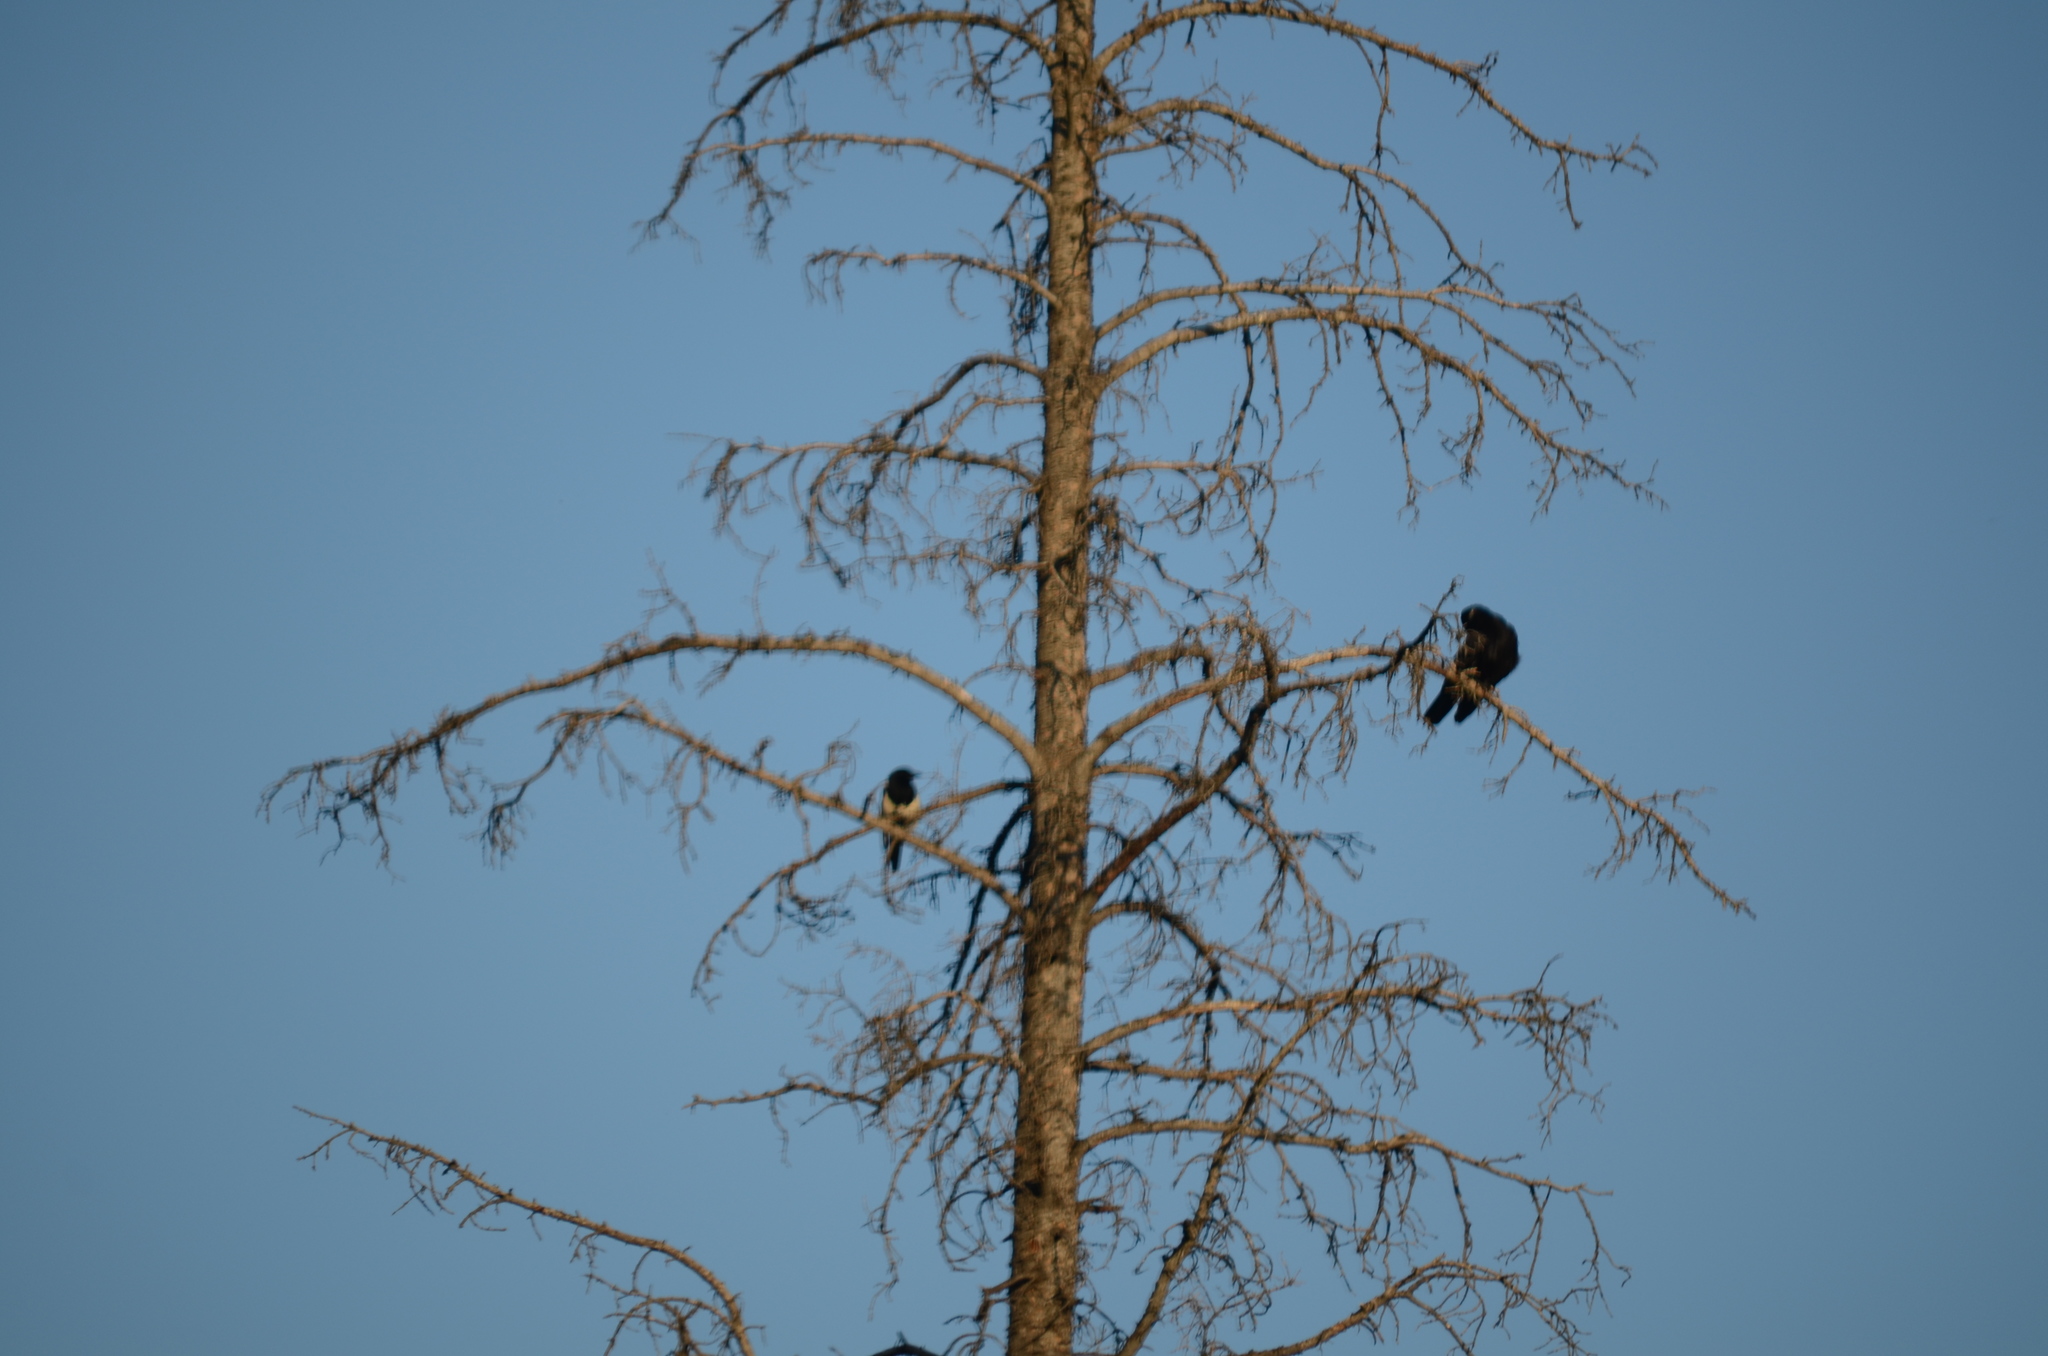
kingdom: Animalia
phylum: Chordata
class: Aves
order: Passeriformes
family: Corvidae
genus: Corvus
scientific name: Corvus corax
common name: Common raven
